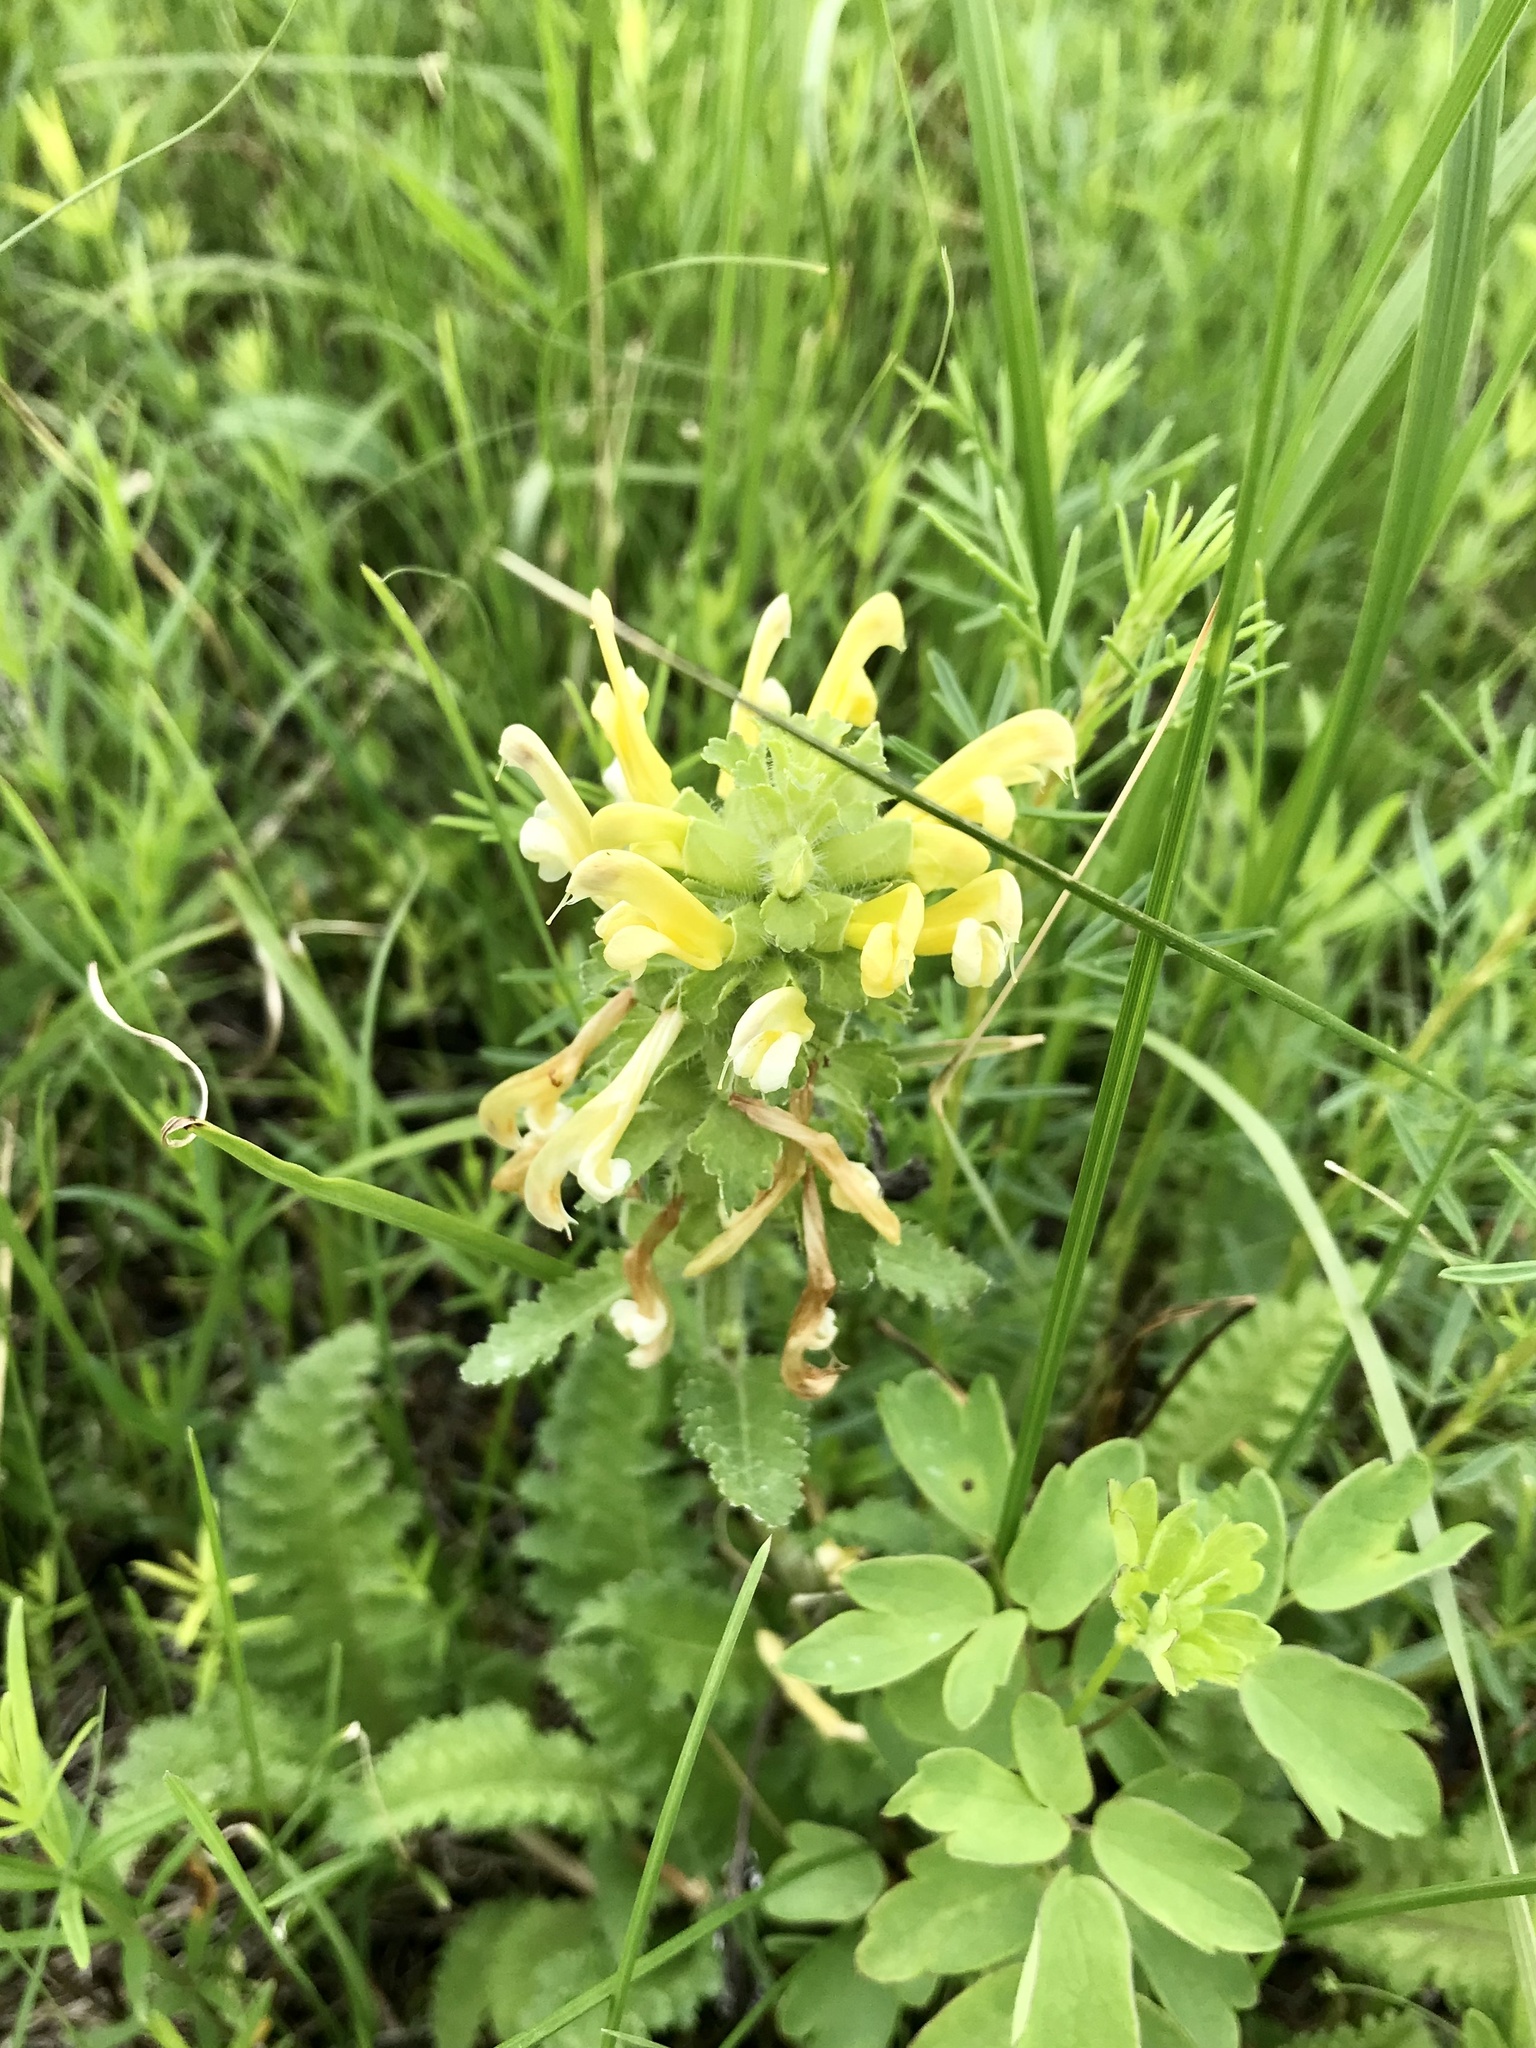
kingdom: Plantae
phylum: Tracheophyta
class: Magnoliopsida
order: Lamiales
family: Orobanchaceae
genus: Pedicularis
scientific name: Pedicularis canadensis
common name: Early lousewort
